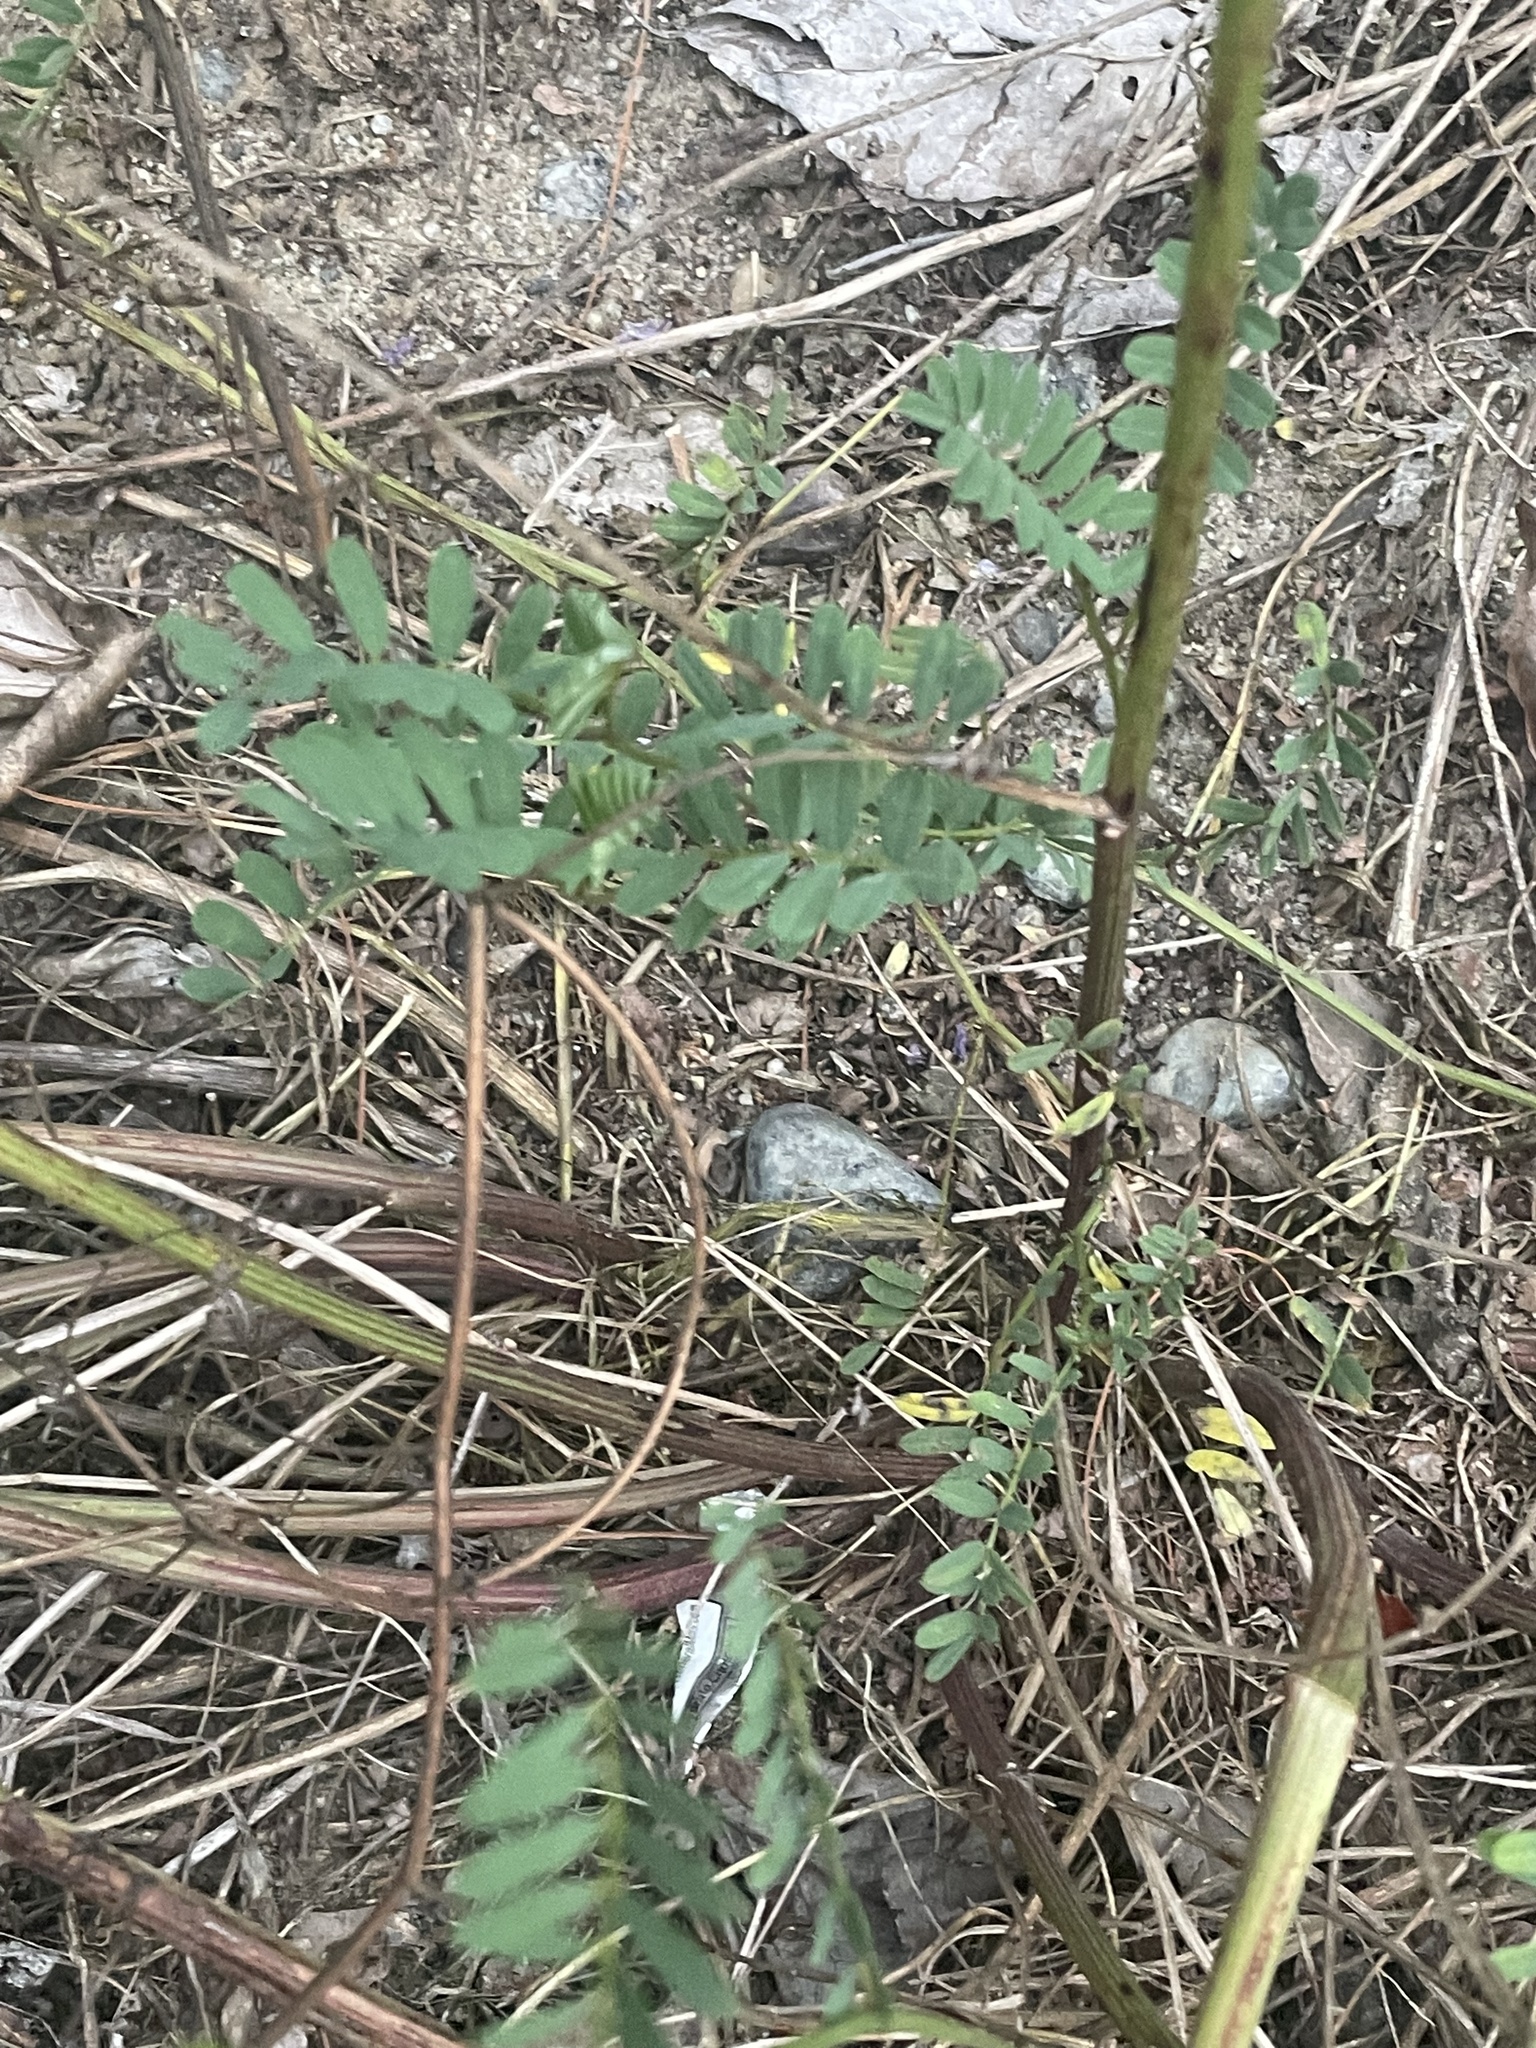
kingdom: Plantae
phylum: Tracheophyta
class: Magnoliopsida
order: Fabales
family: Fabaceae
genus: Coronilla
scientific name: Coronilla varia
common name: Crownvetch
